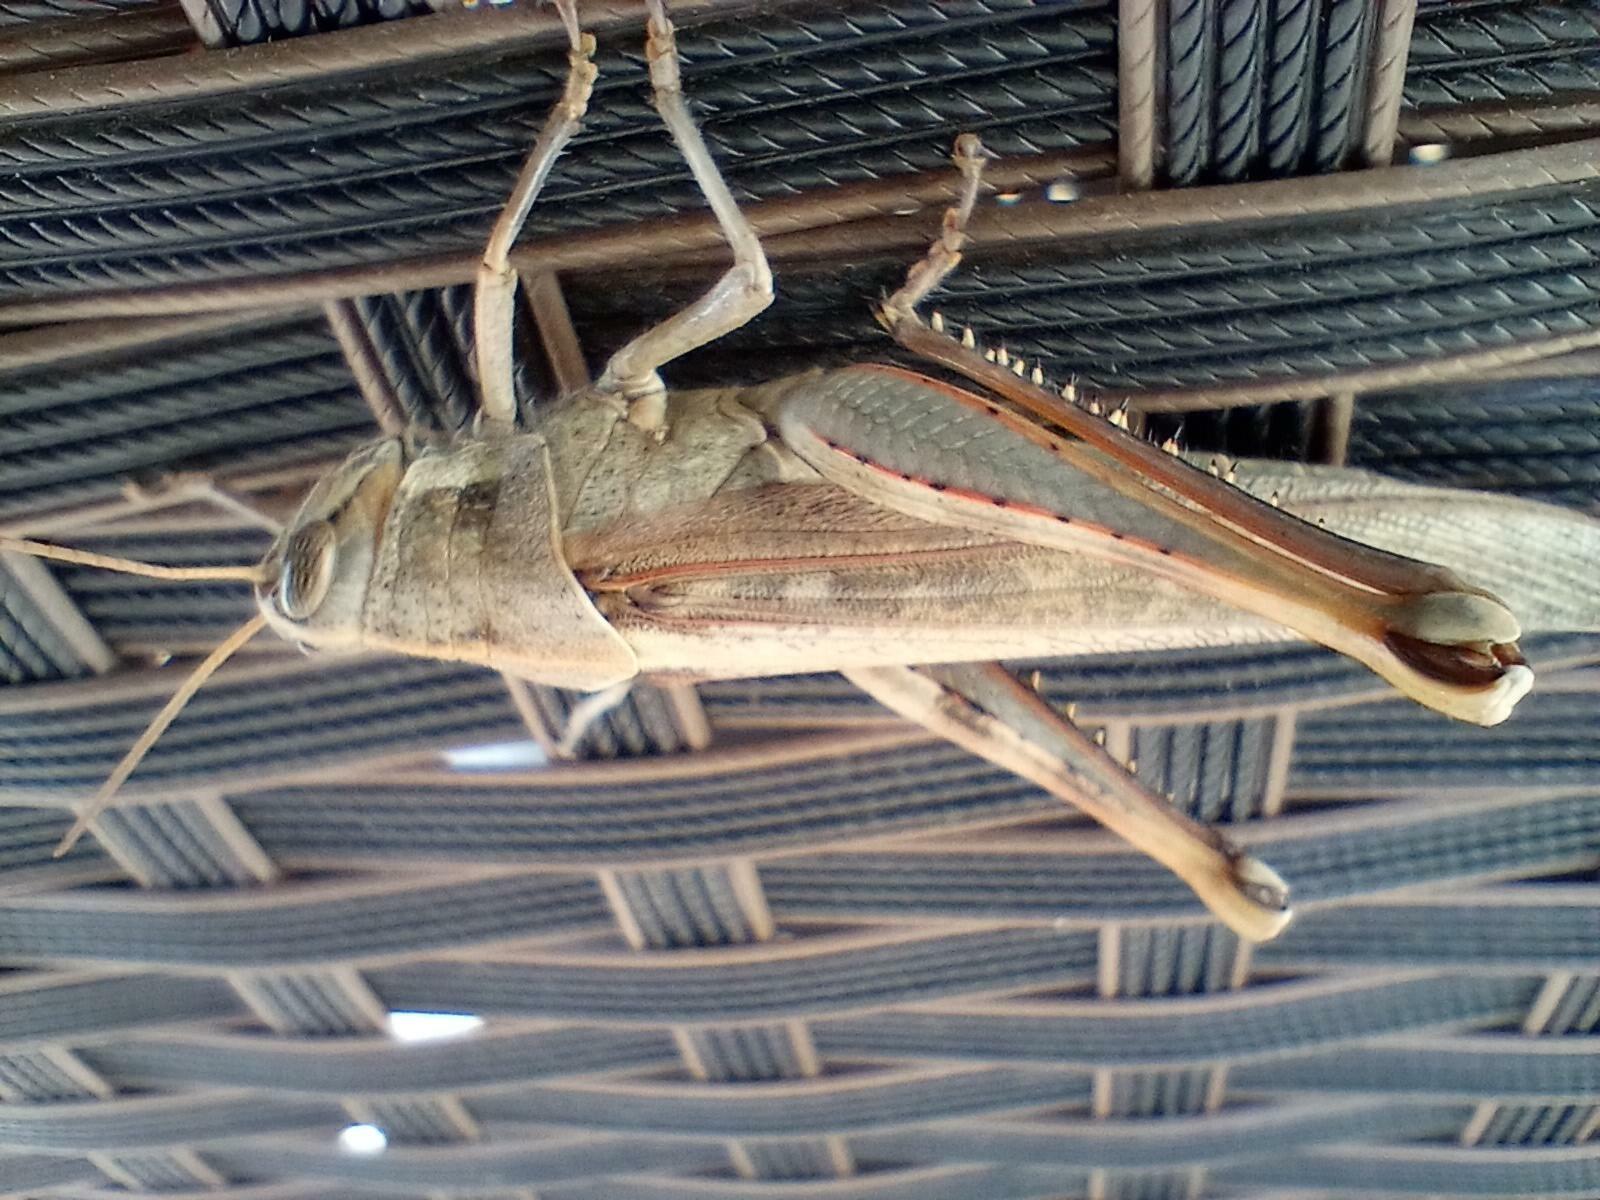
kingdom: Animalia
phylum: Arthropoda
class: Insecta
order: Orthoptera
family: Acrididae
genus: Schistocerca
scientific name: Schistocerca nitens
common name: Vagrant grasshopper
